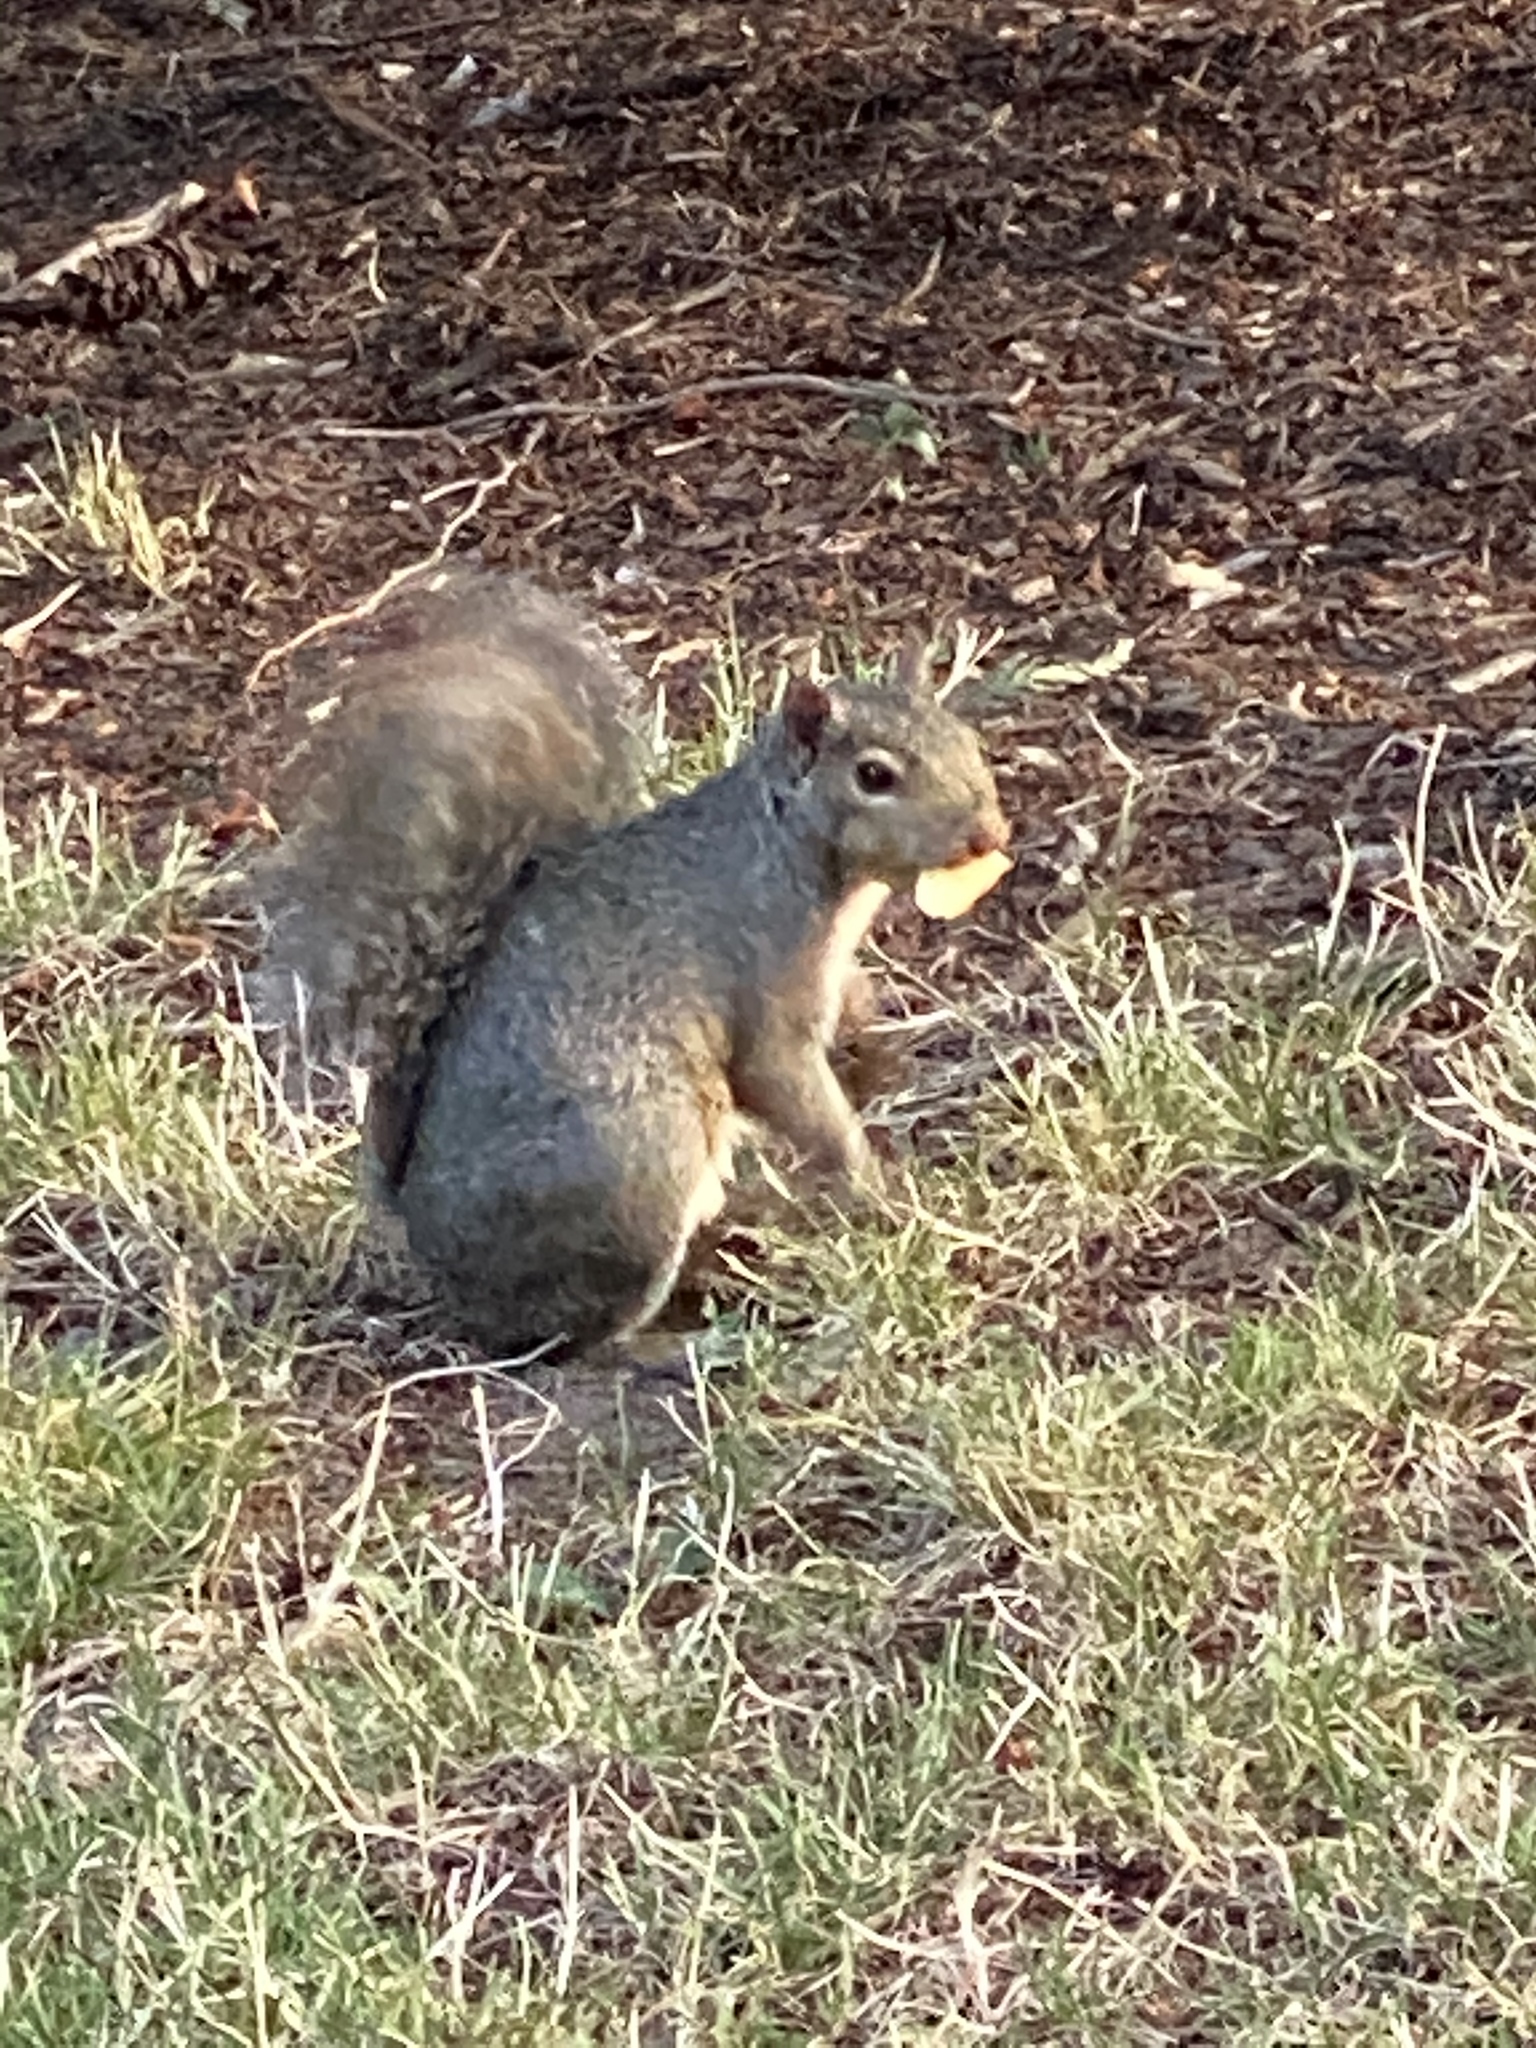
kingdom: Animalia
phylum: Chordata
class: Mammalia
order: Rodentia
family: Sciuridae
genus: Sciurus
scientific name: Sciurus carolinensis
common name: Eastern gray squirrel
